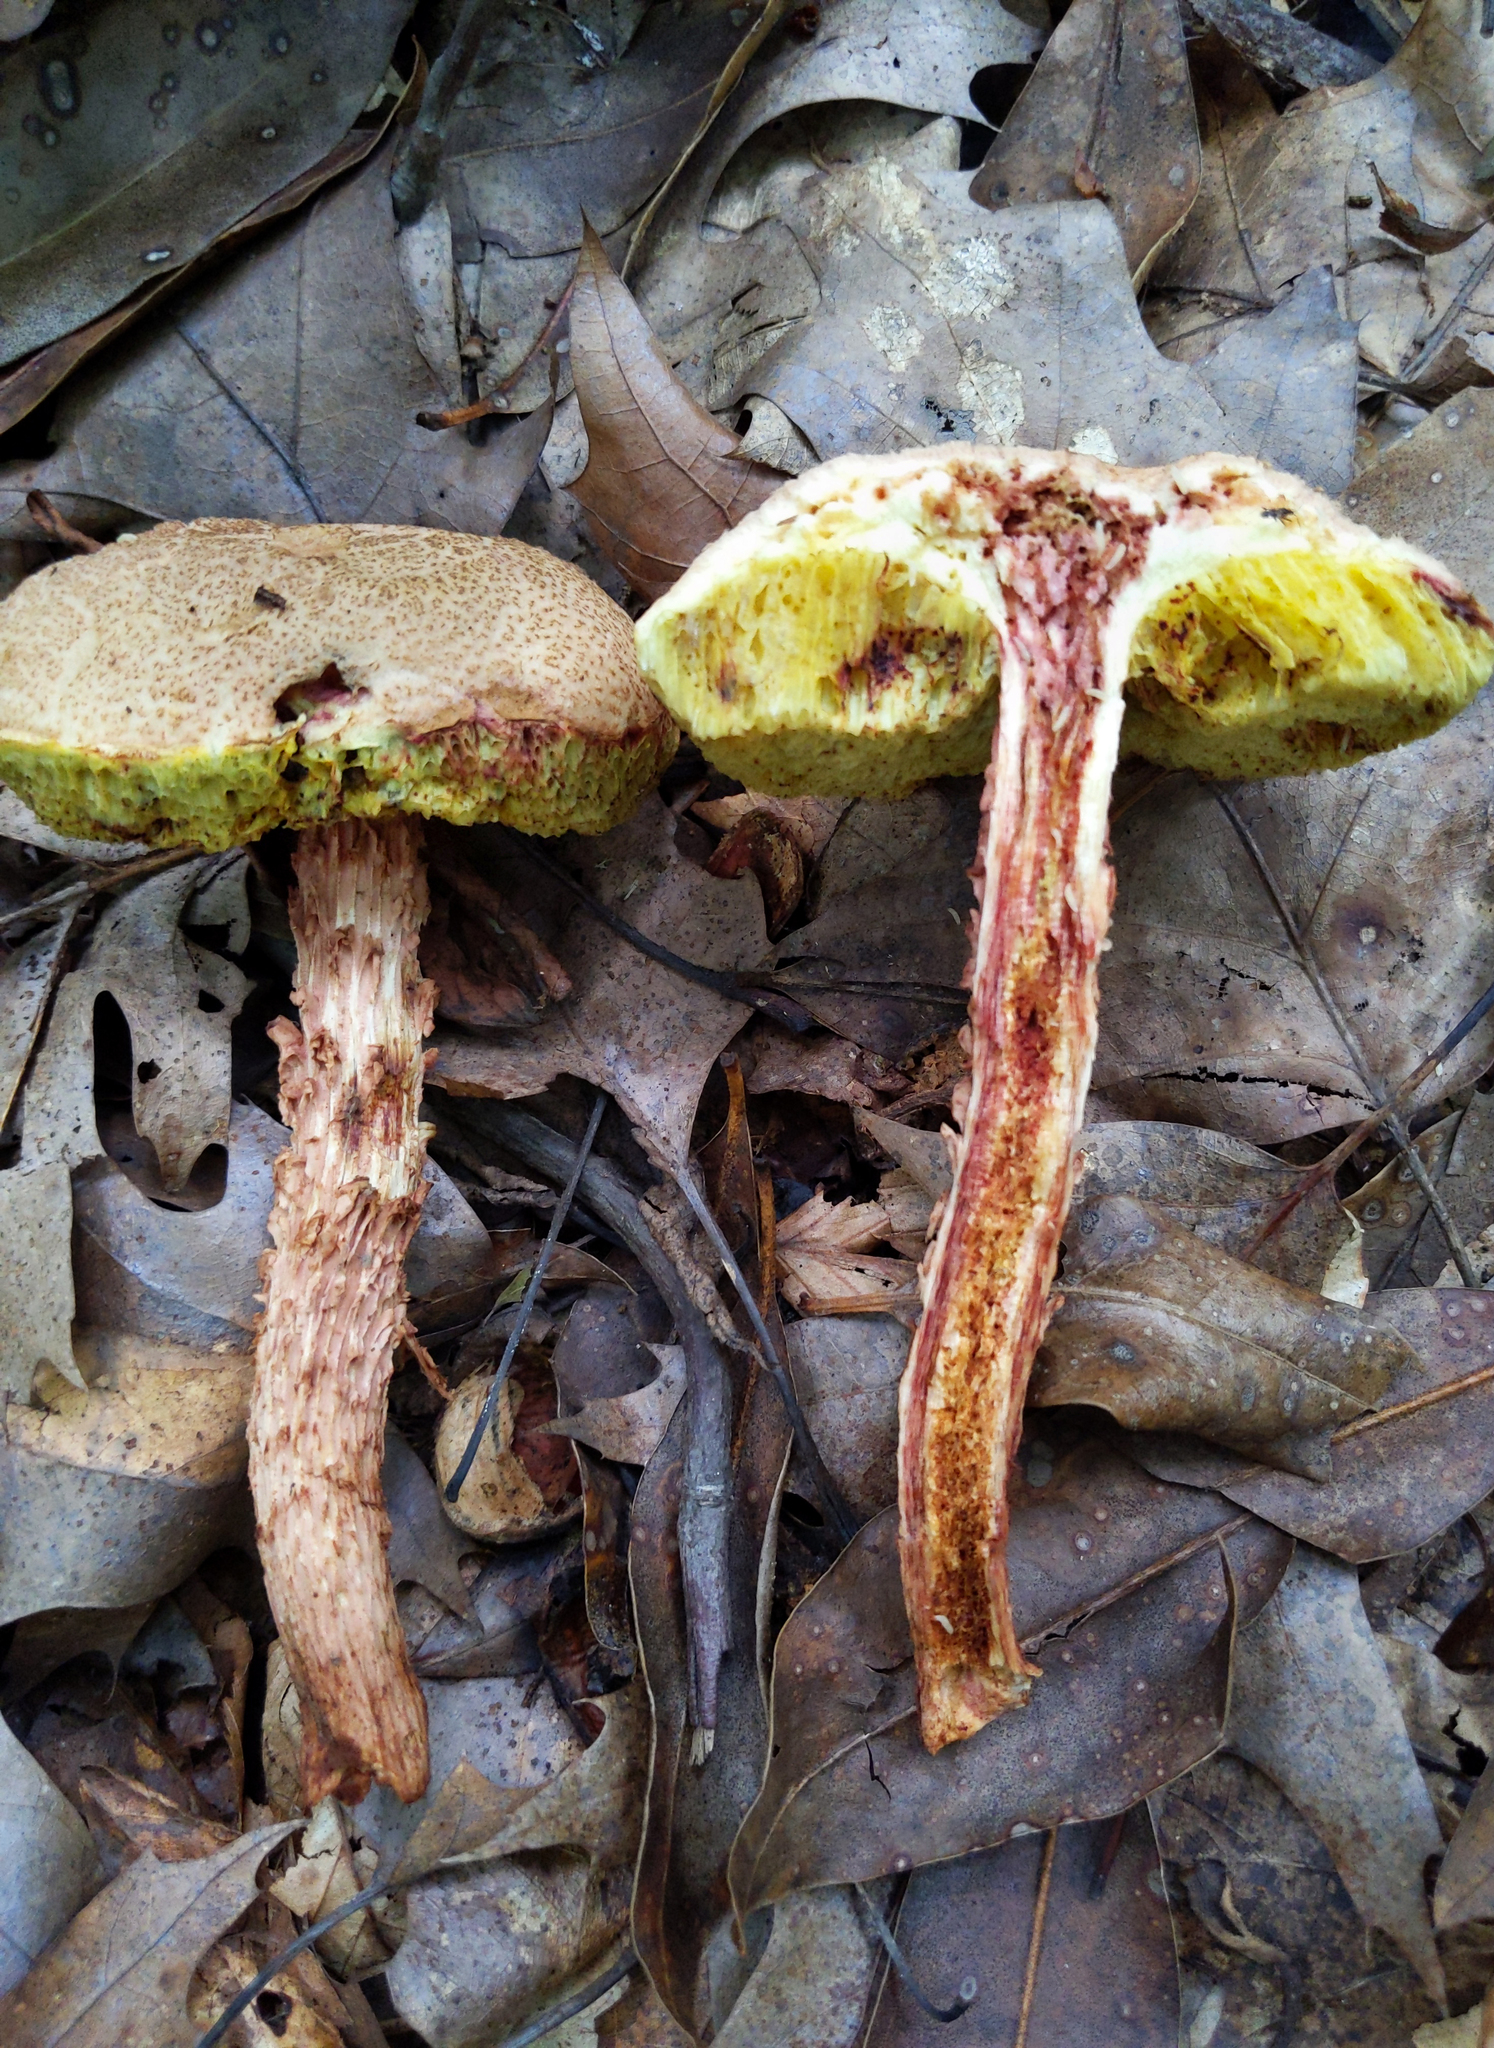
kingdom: Fungi
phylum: Basidiomycota
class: Agaricomycetes
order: Boletales
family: Boletaceae
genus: Aureoboletus
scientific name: Aureoboletus russellii
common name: Russell's bolete
